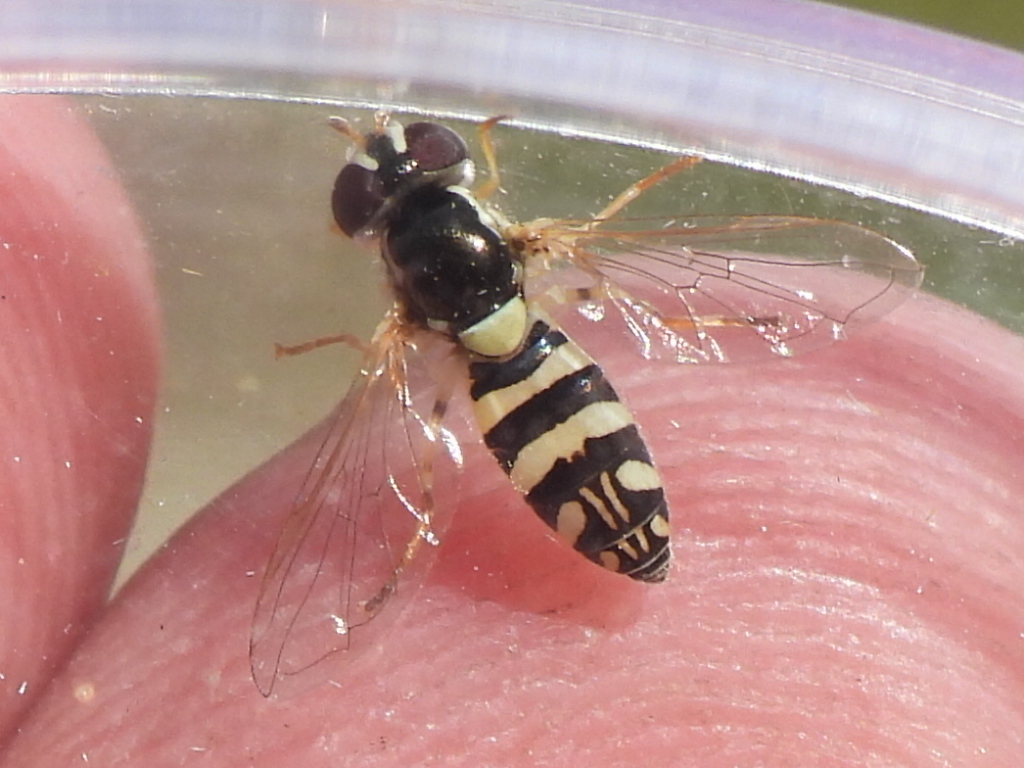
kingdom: Animalia
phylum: Arthropoda
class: Insecta
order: Diptera
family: Syrphidae
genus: Allograpta
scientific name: Allograpta exotica
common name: Syrphid fly
